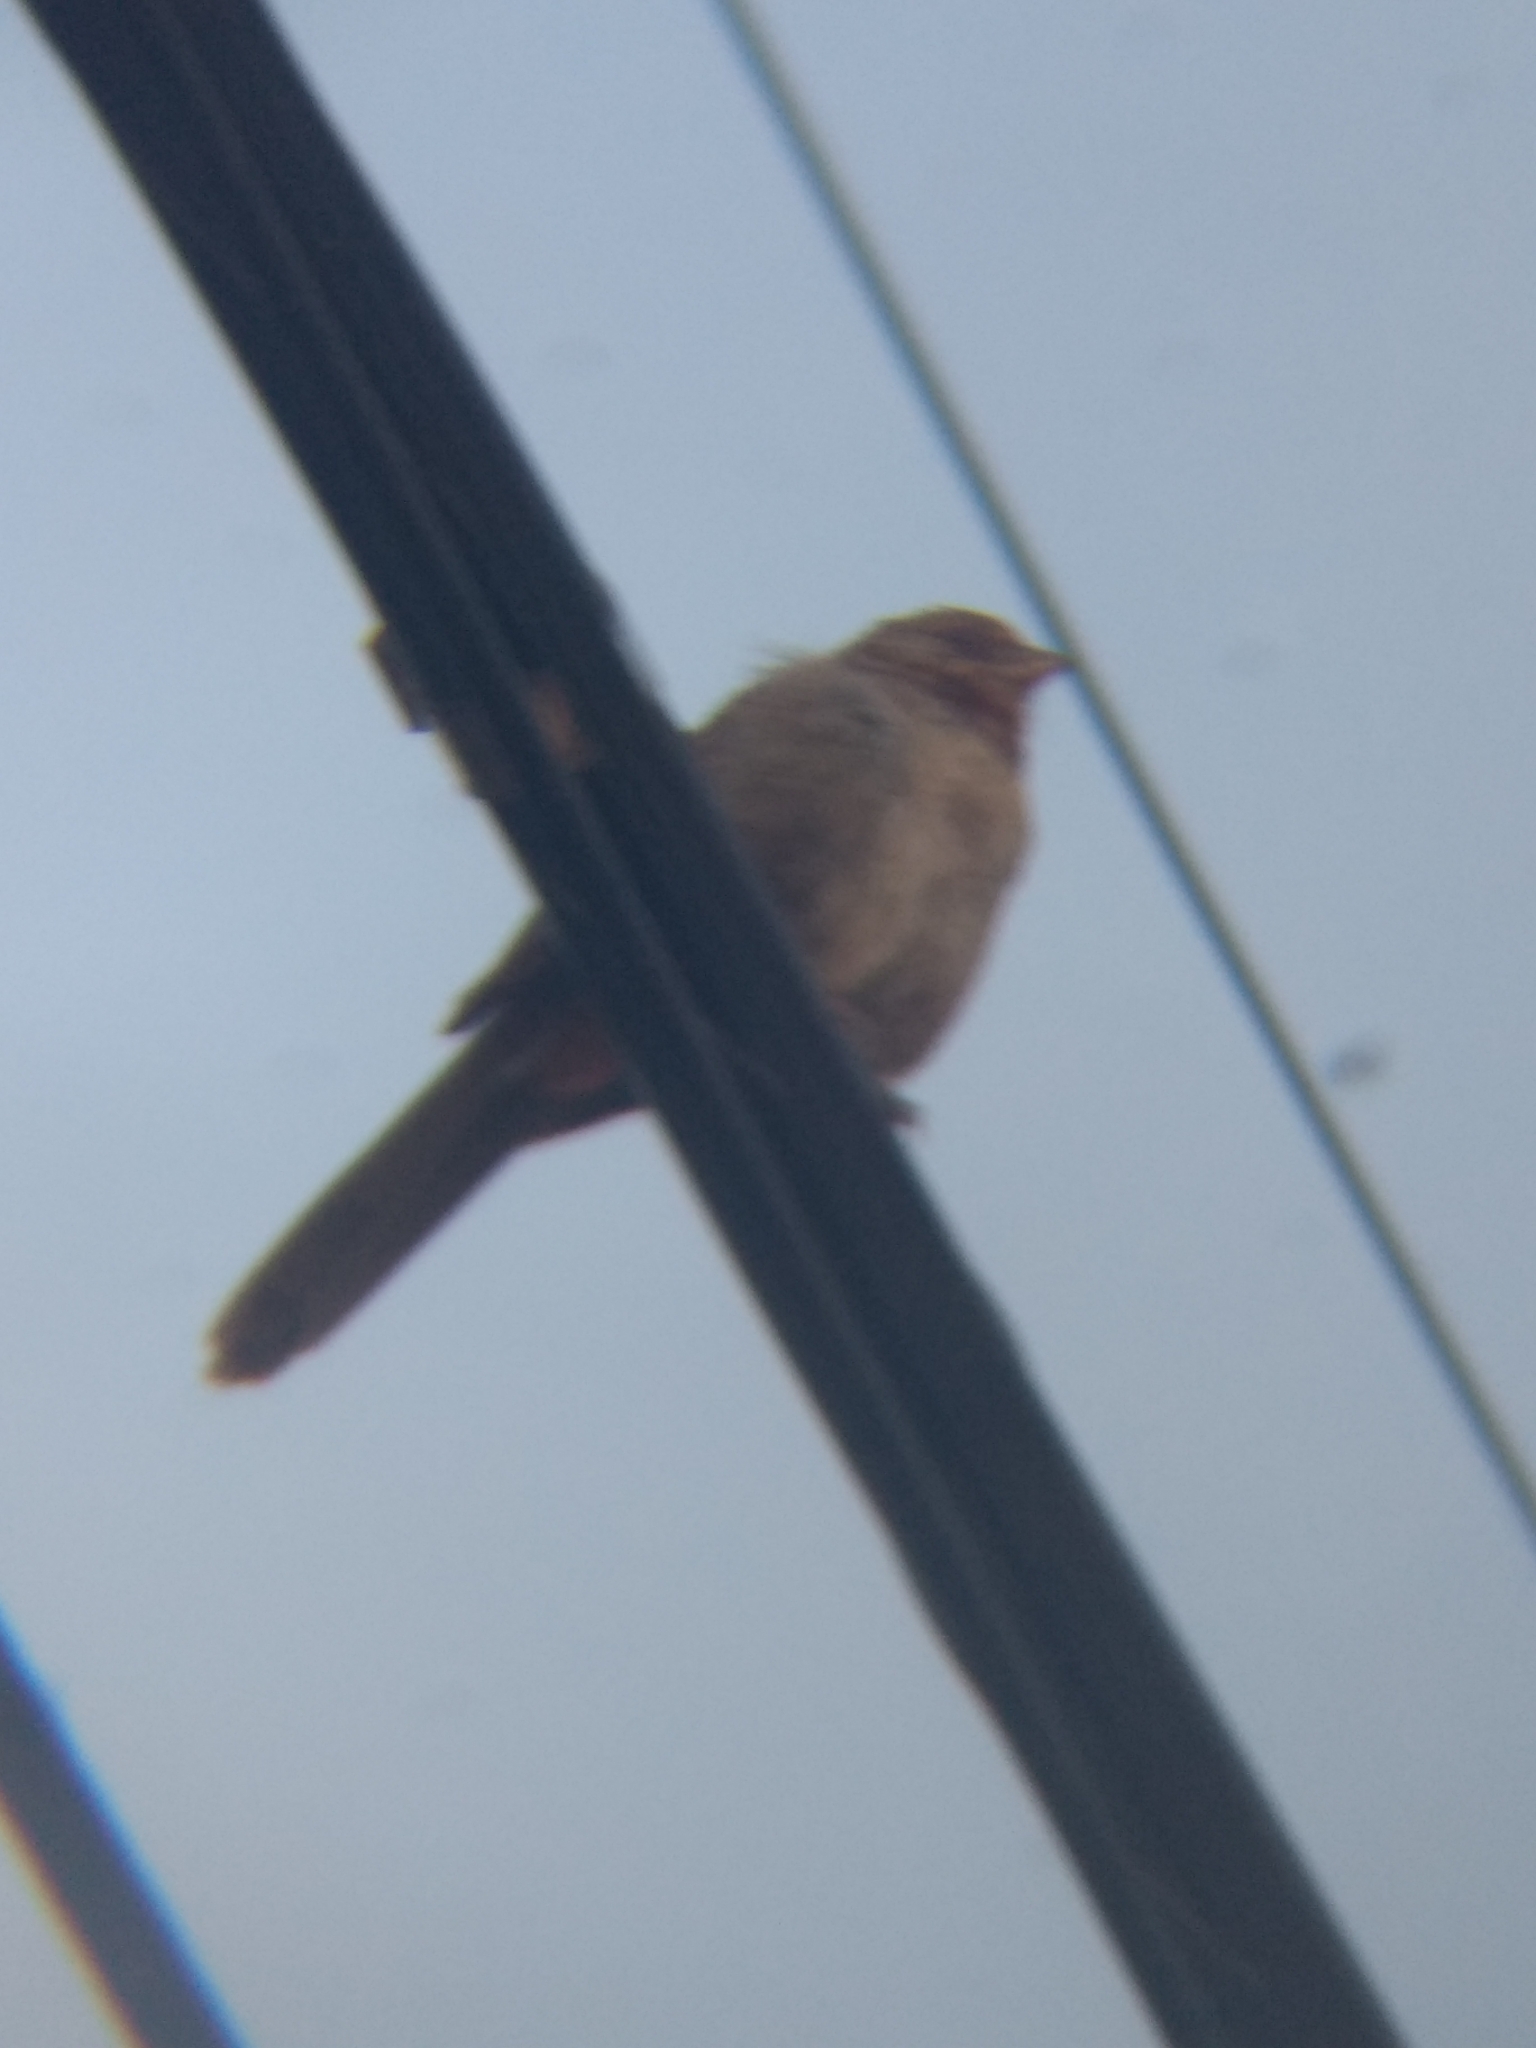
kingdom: Animalia
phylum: Chordata
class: Aves
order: Passeriformes
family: Passerellidae
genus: Melozone
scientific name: Melozone crissalis
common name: California towhee
